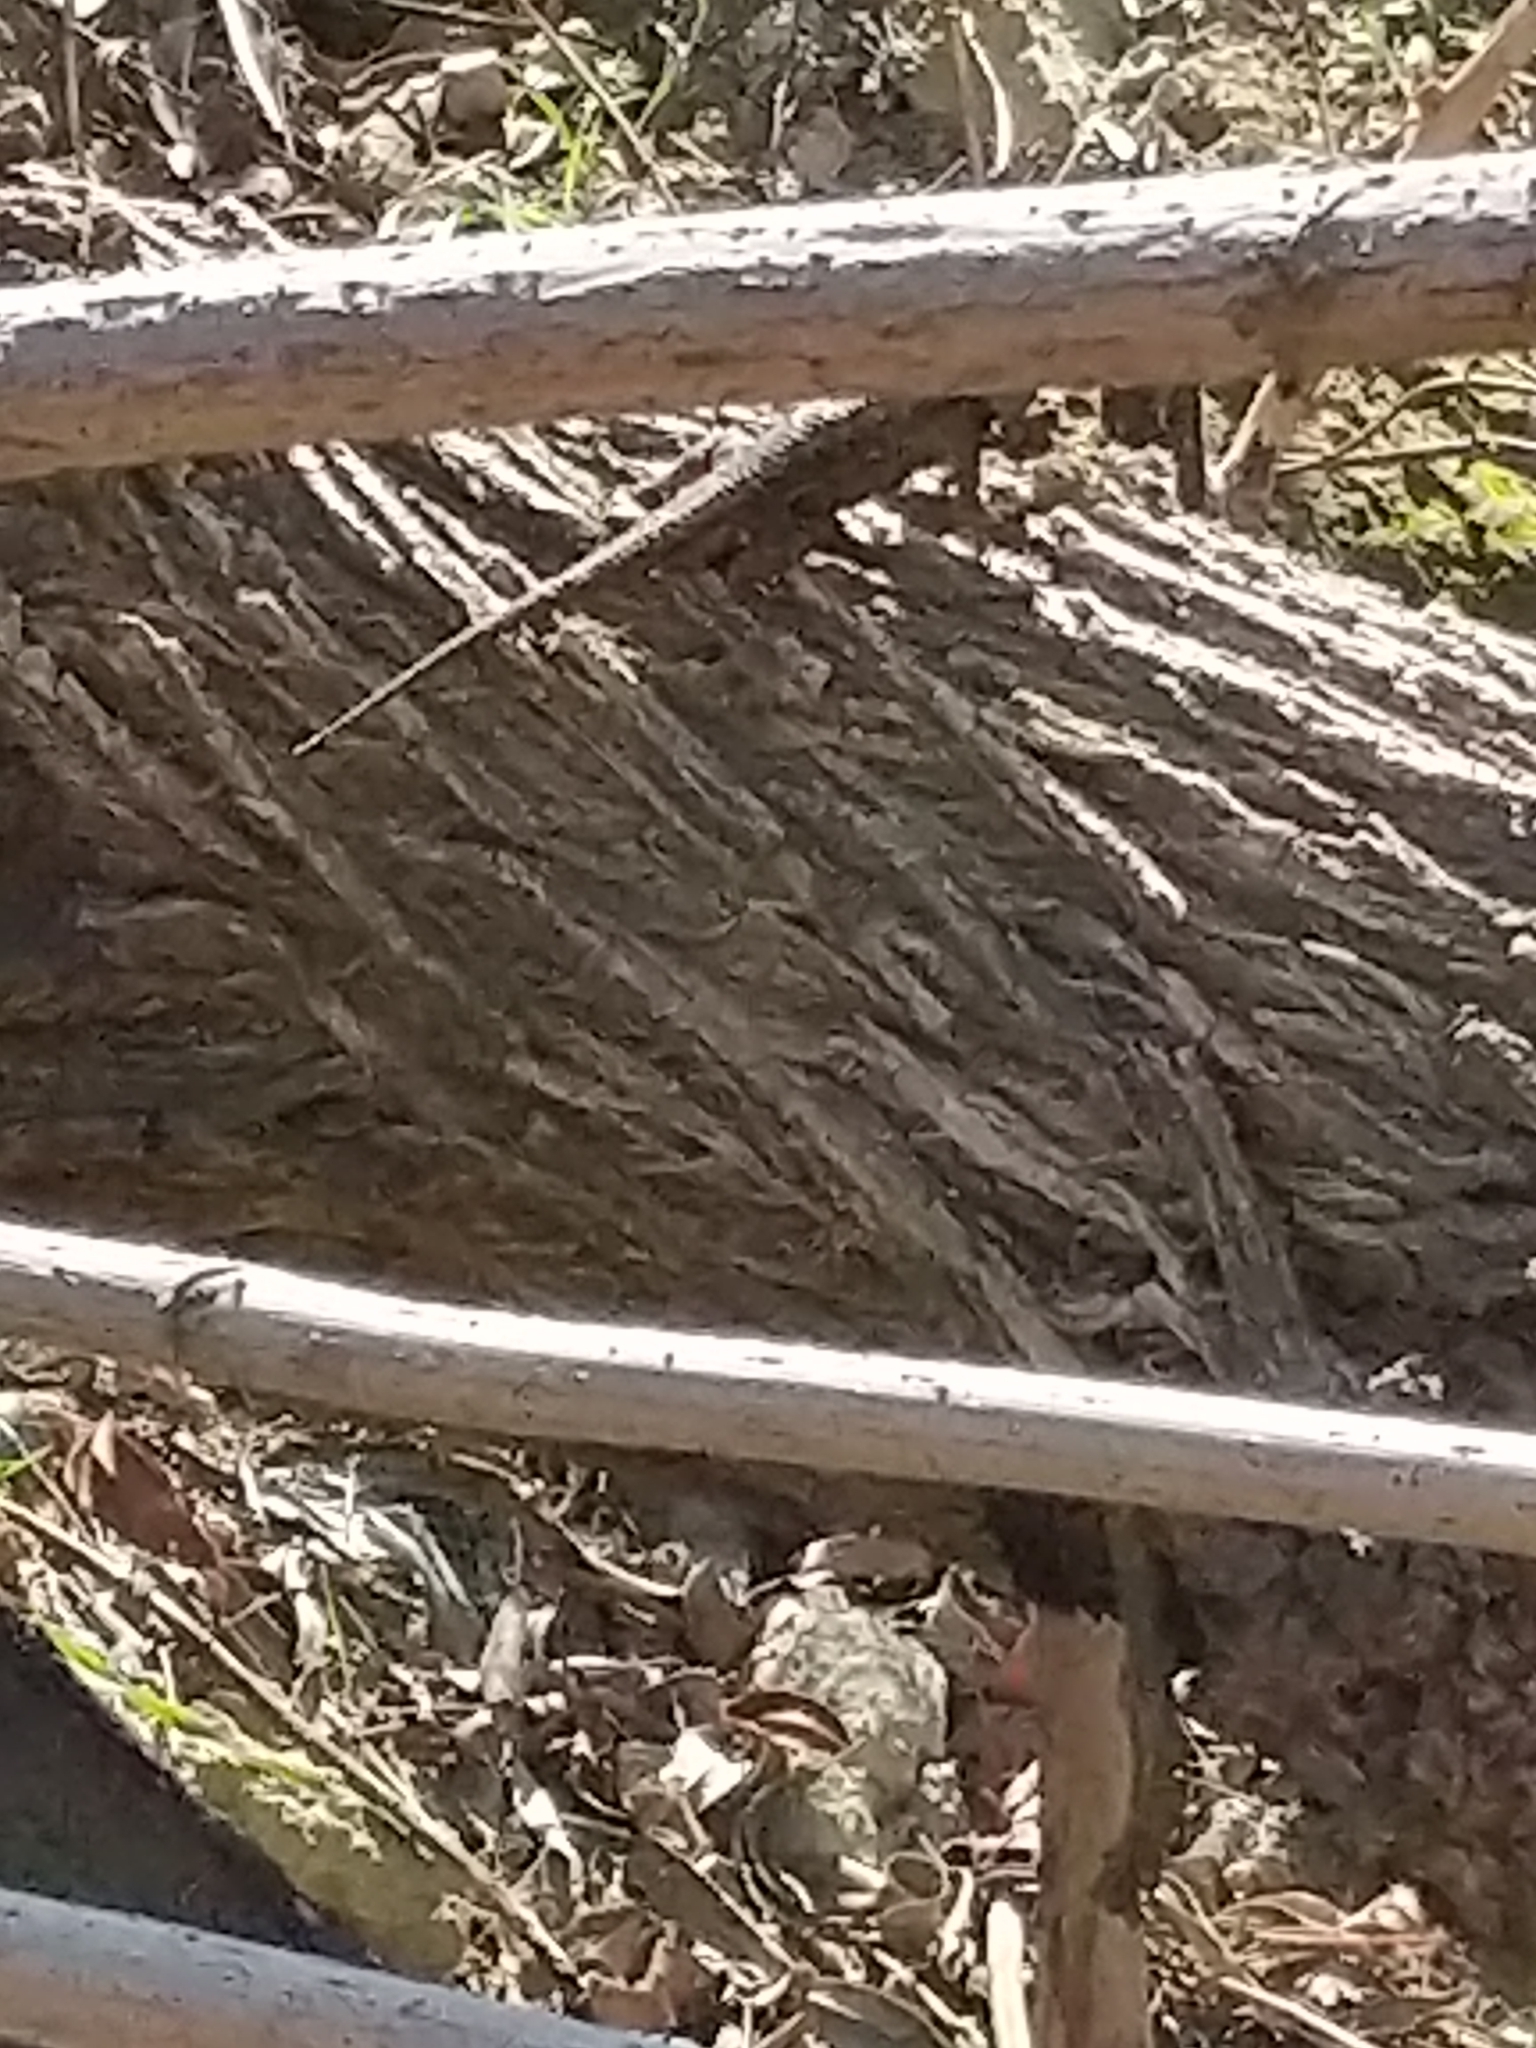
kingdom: Animalia
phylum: Chordata
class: Squamata
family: Phrynosomatidae
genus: Sceloporus
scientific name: Sceloporus occidentalis
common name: Western fence lizard
